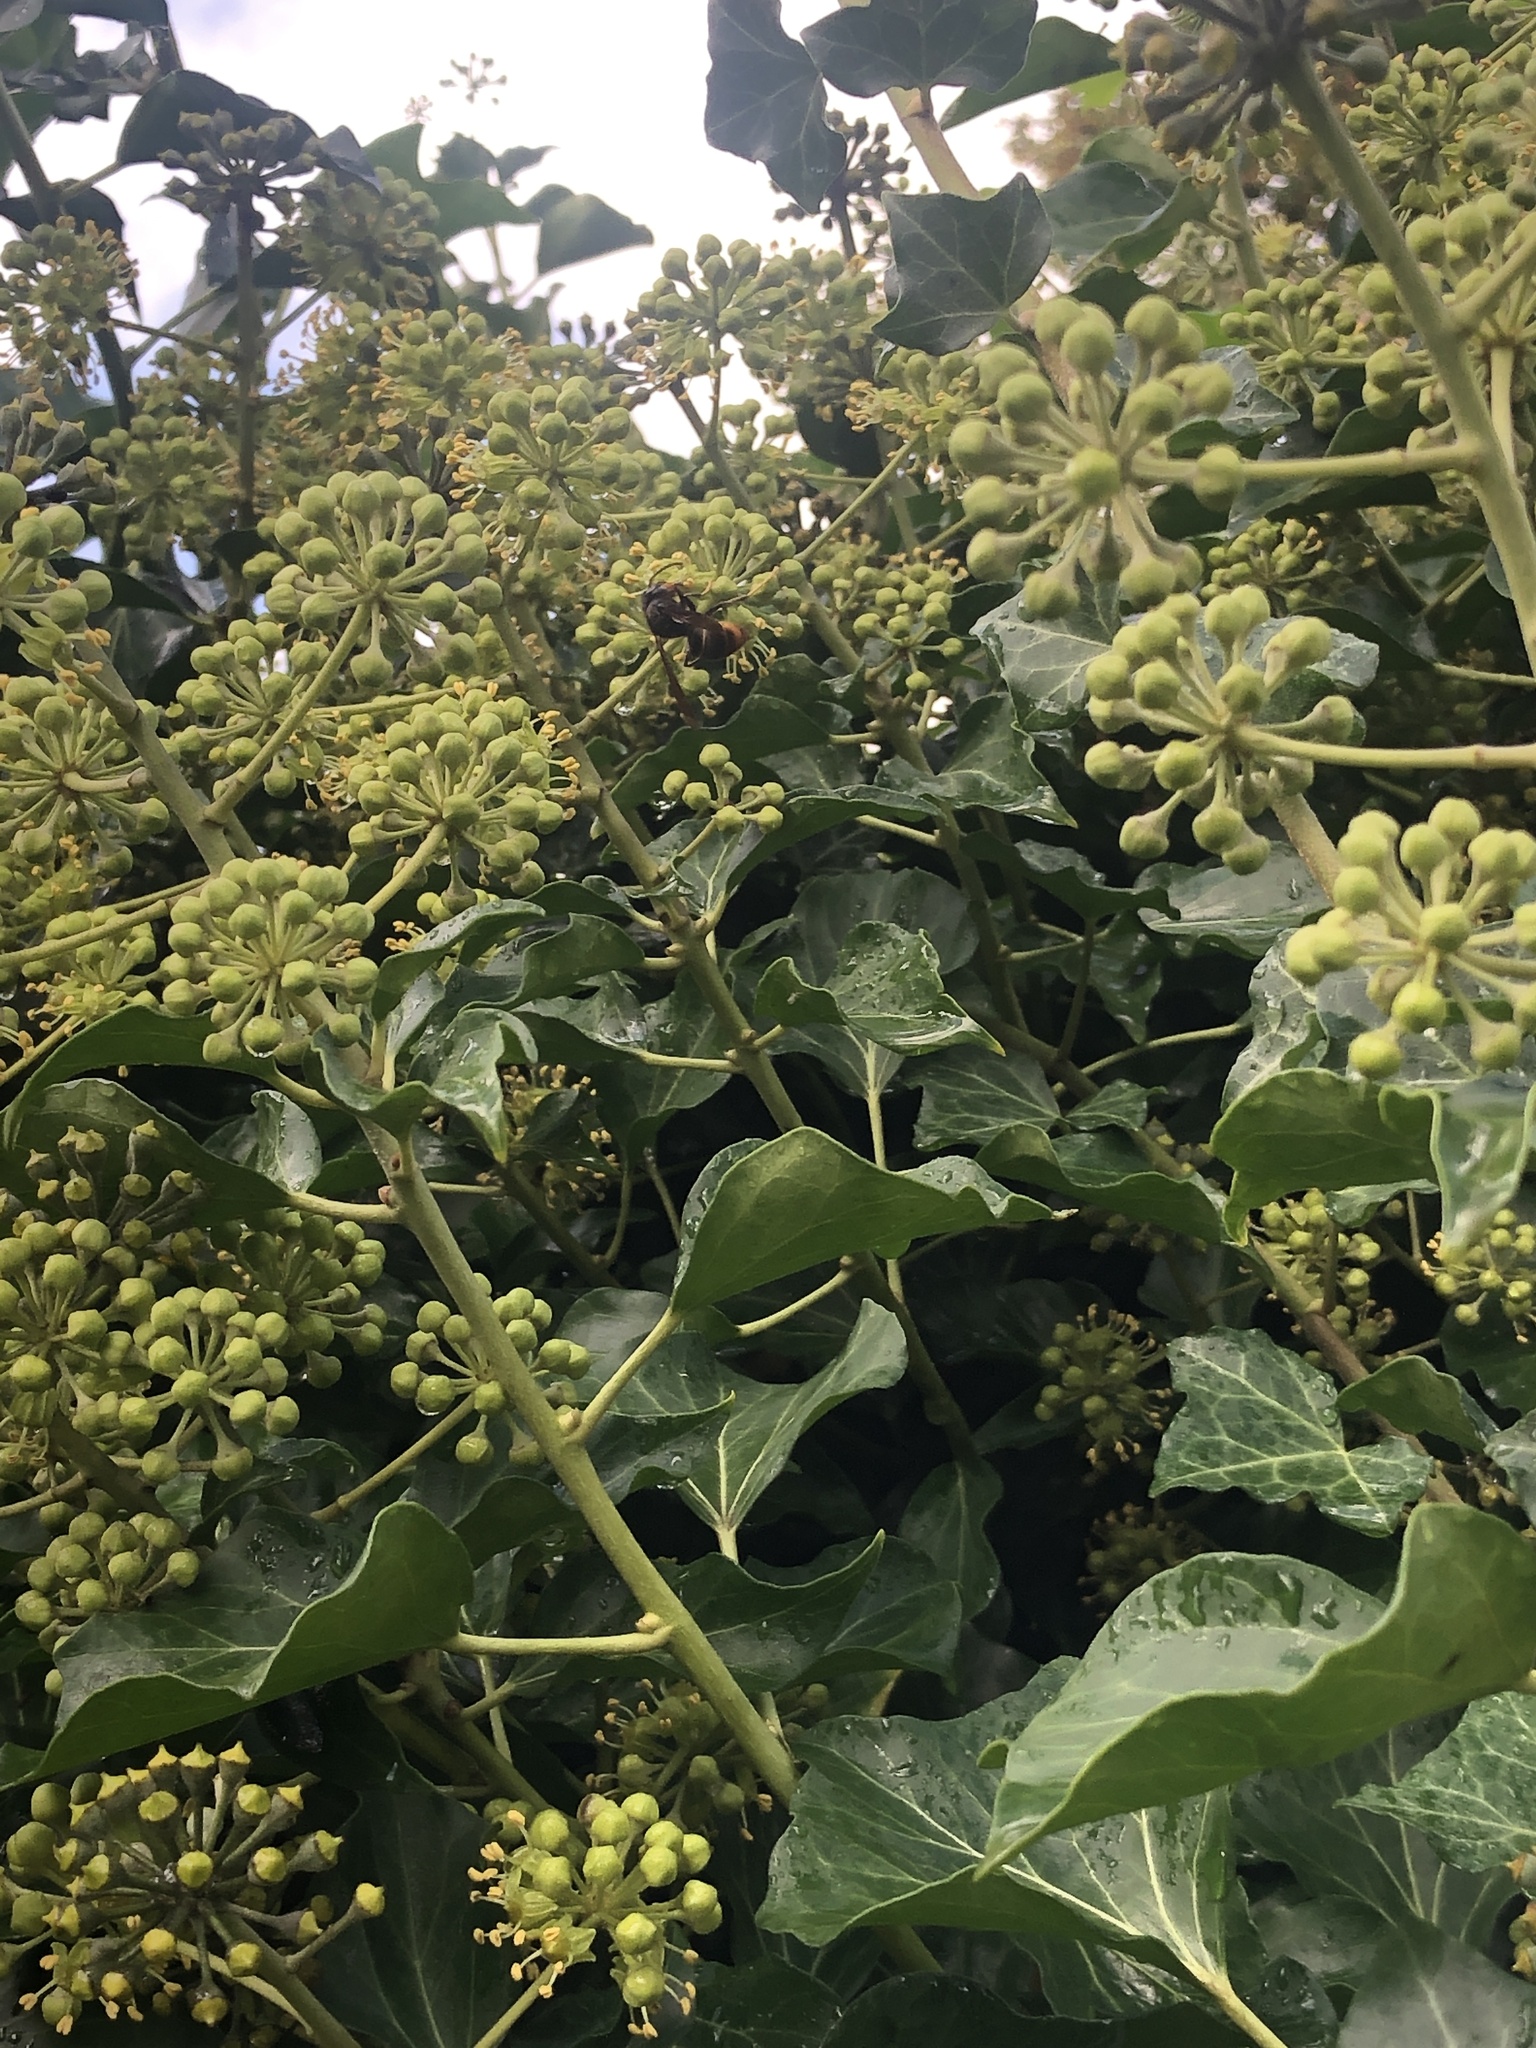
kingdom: Animalia
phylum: Arthropoda
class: Insecta
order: Hymenoptera
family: Vespidae
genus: Vespa
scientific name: Vespa velutina
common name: Asian hornet
